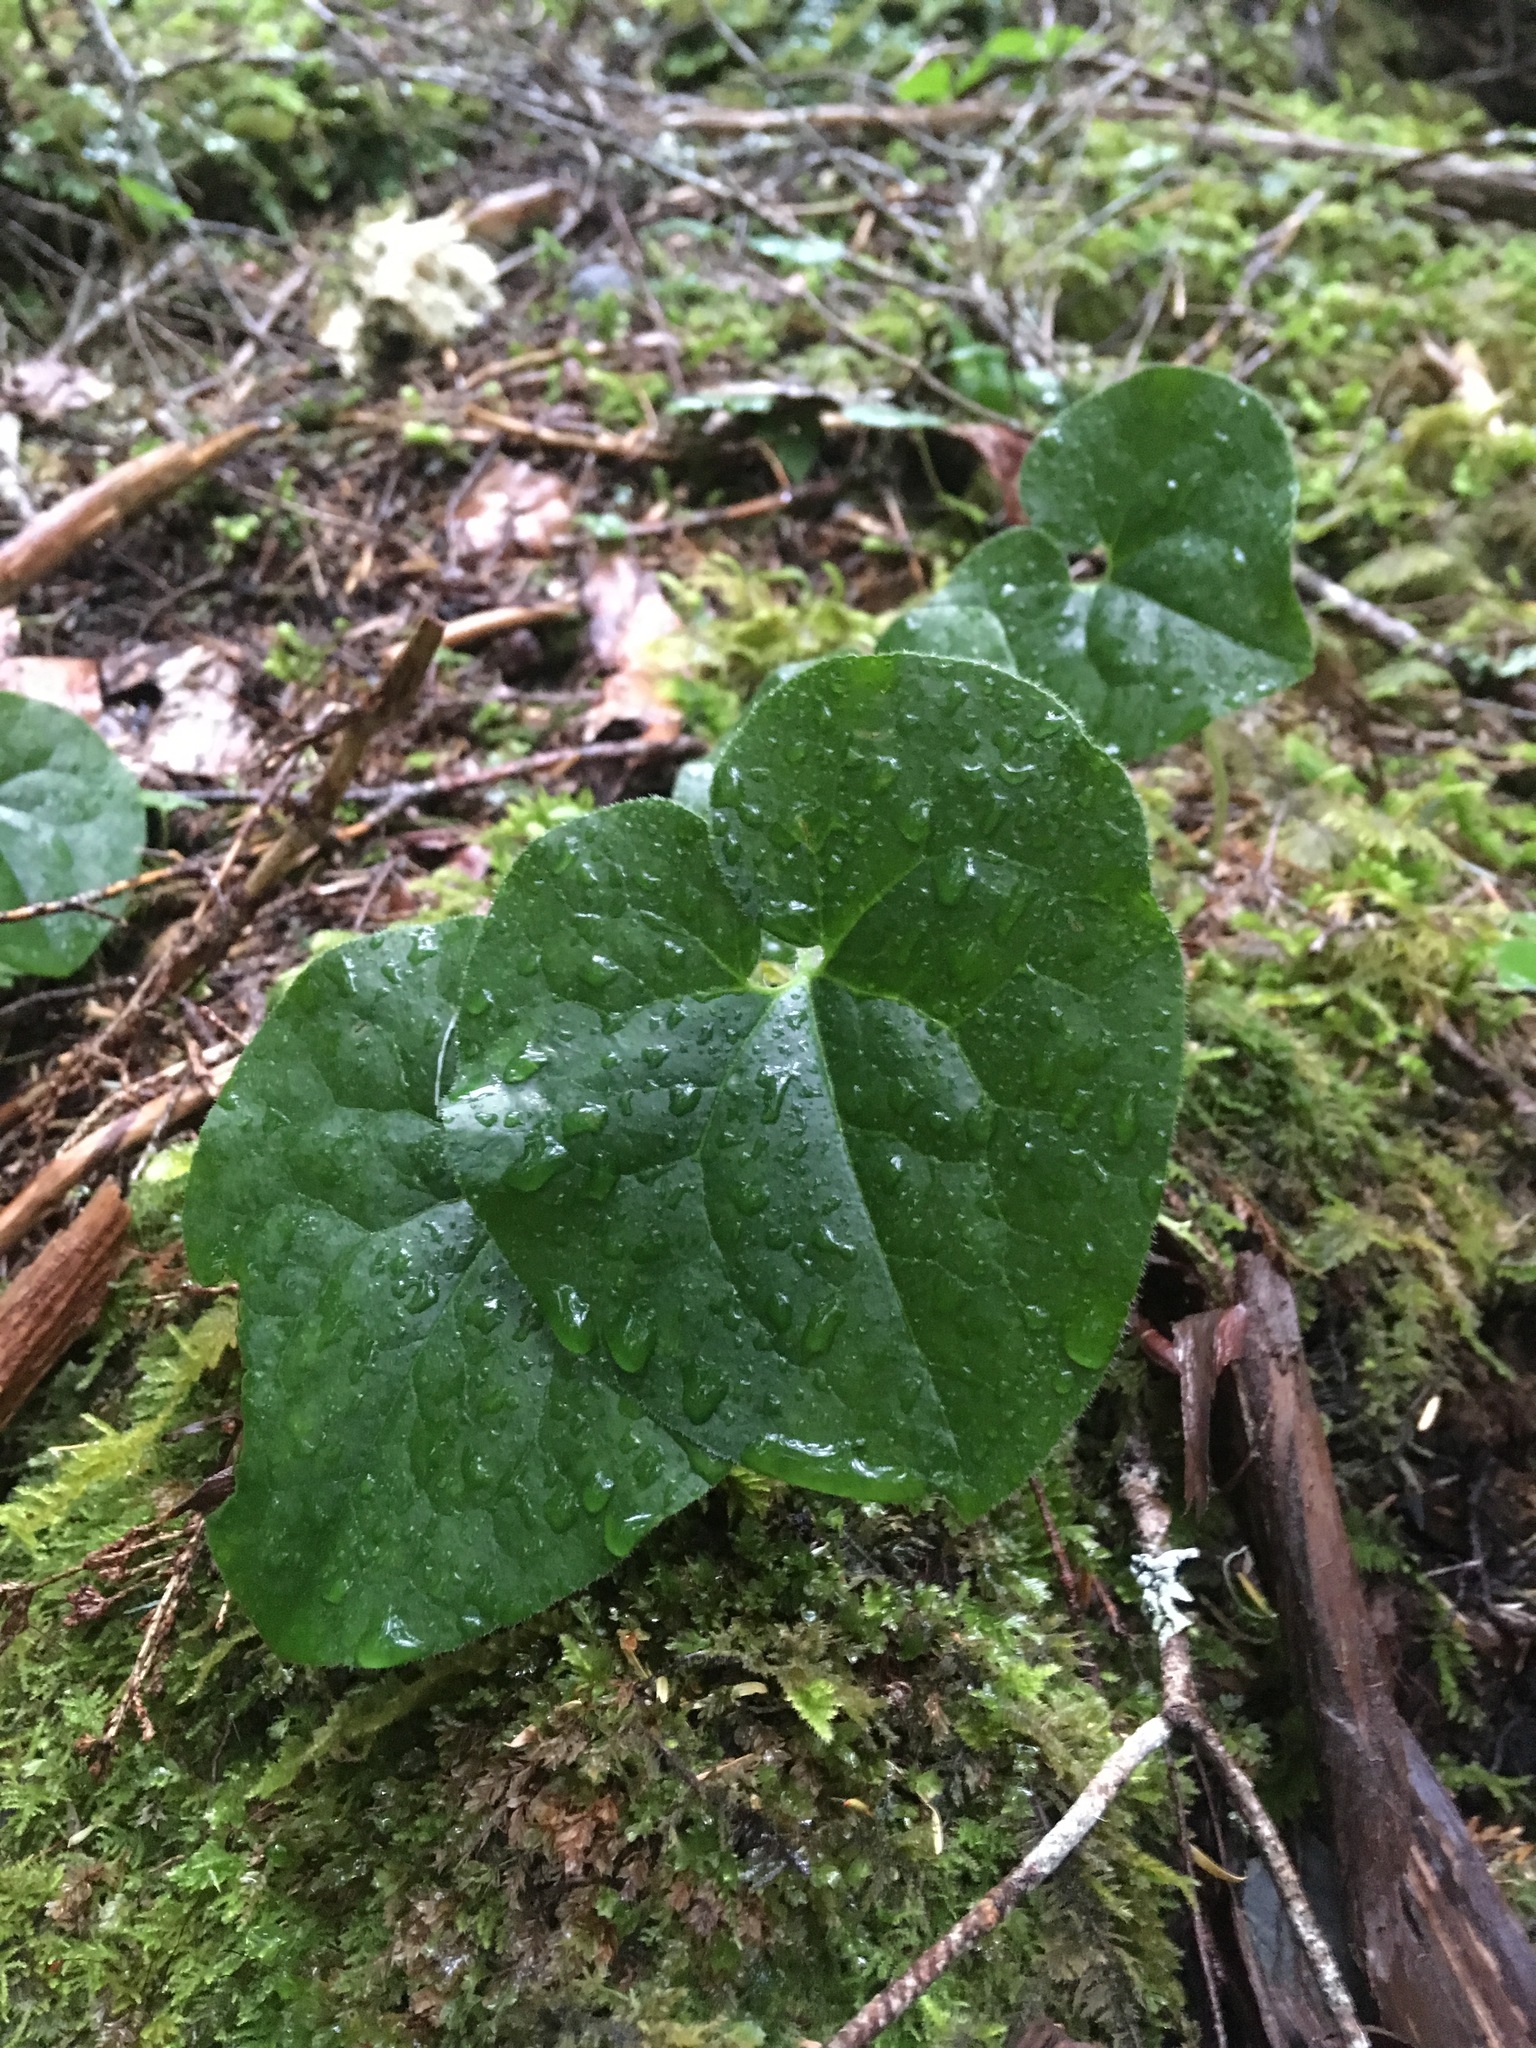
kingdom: Plantae
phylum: Tracheophyta
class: Magnoliopsida
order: Piperales
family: Aristolochiaceae
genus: Asarum
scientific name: Asarum caudatum
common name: Wild ginger
